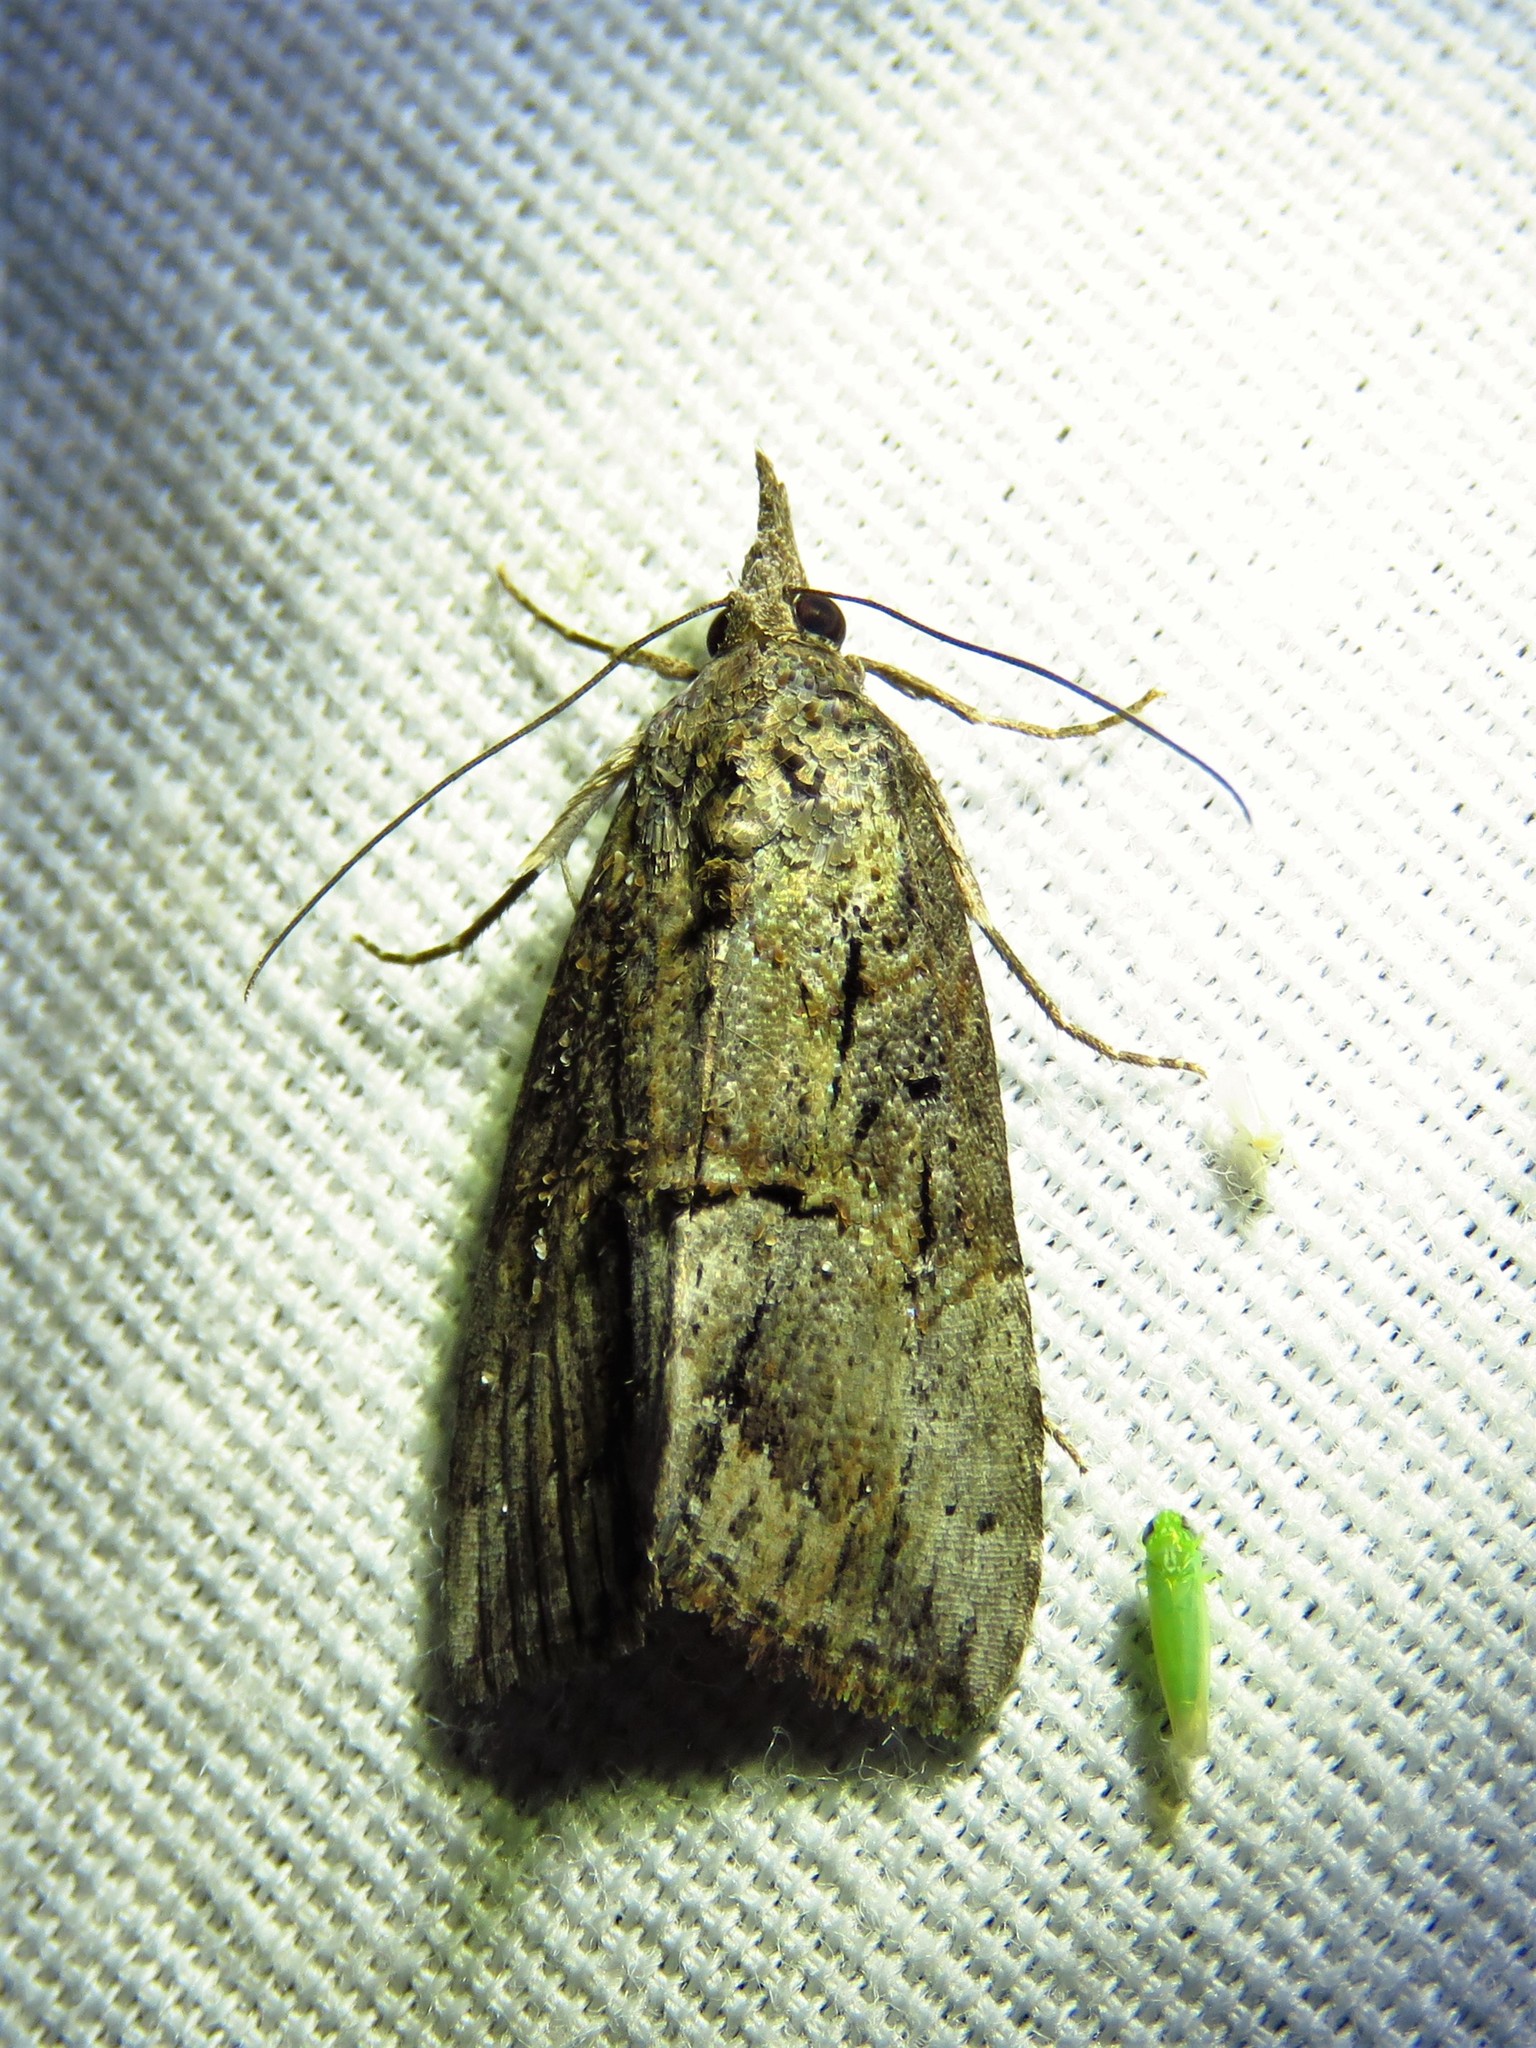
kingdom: Animalia
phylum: Arthropoda
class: Insecta
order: Lepidoptera
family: Erebidae
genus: Hypena
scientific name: Hypena scabra
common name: Green cloverworm
